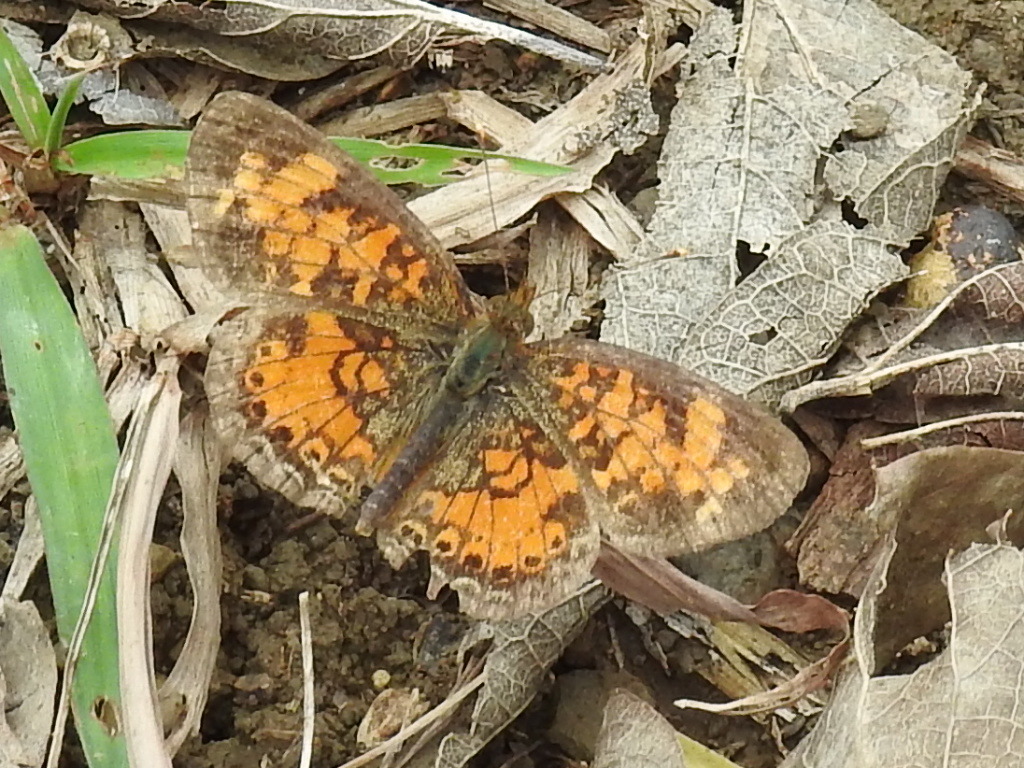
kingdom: Animalia
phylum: Arthropoda
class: Insecta
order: Lepidoptera
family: Nymphalidae
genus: Phyciodes
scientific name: Phyciodes tharos
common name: Pearl crescent
